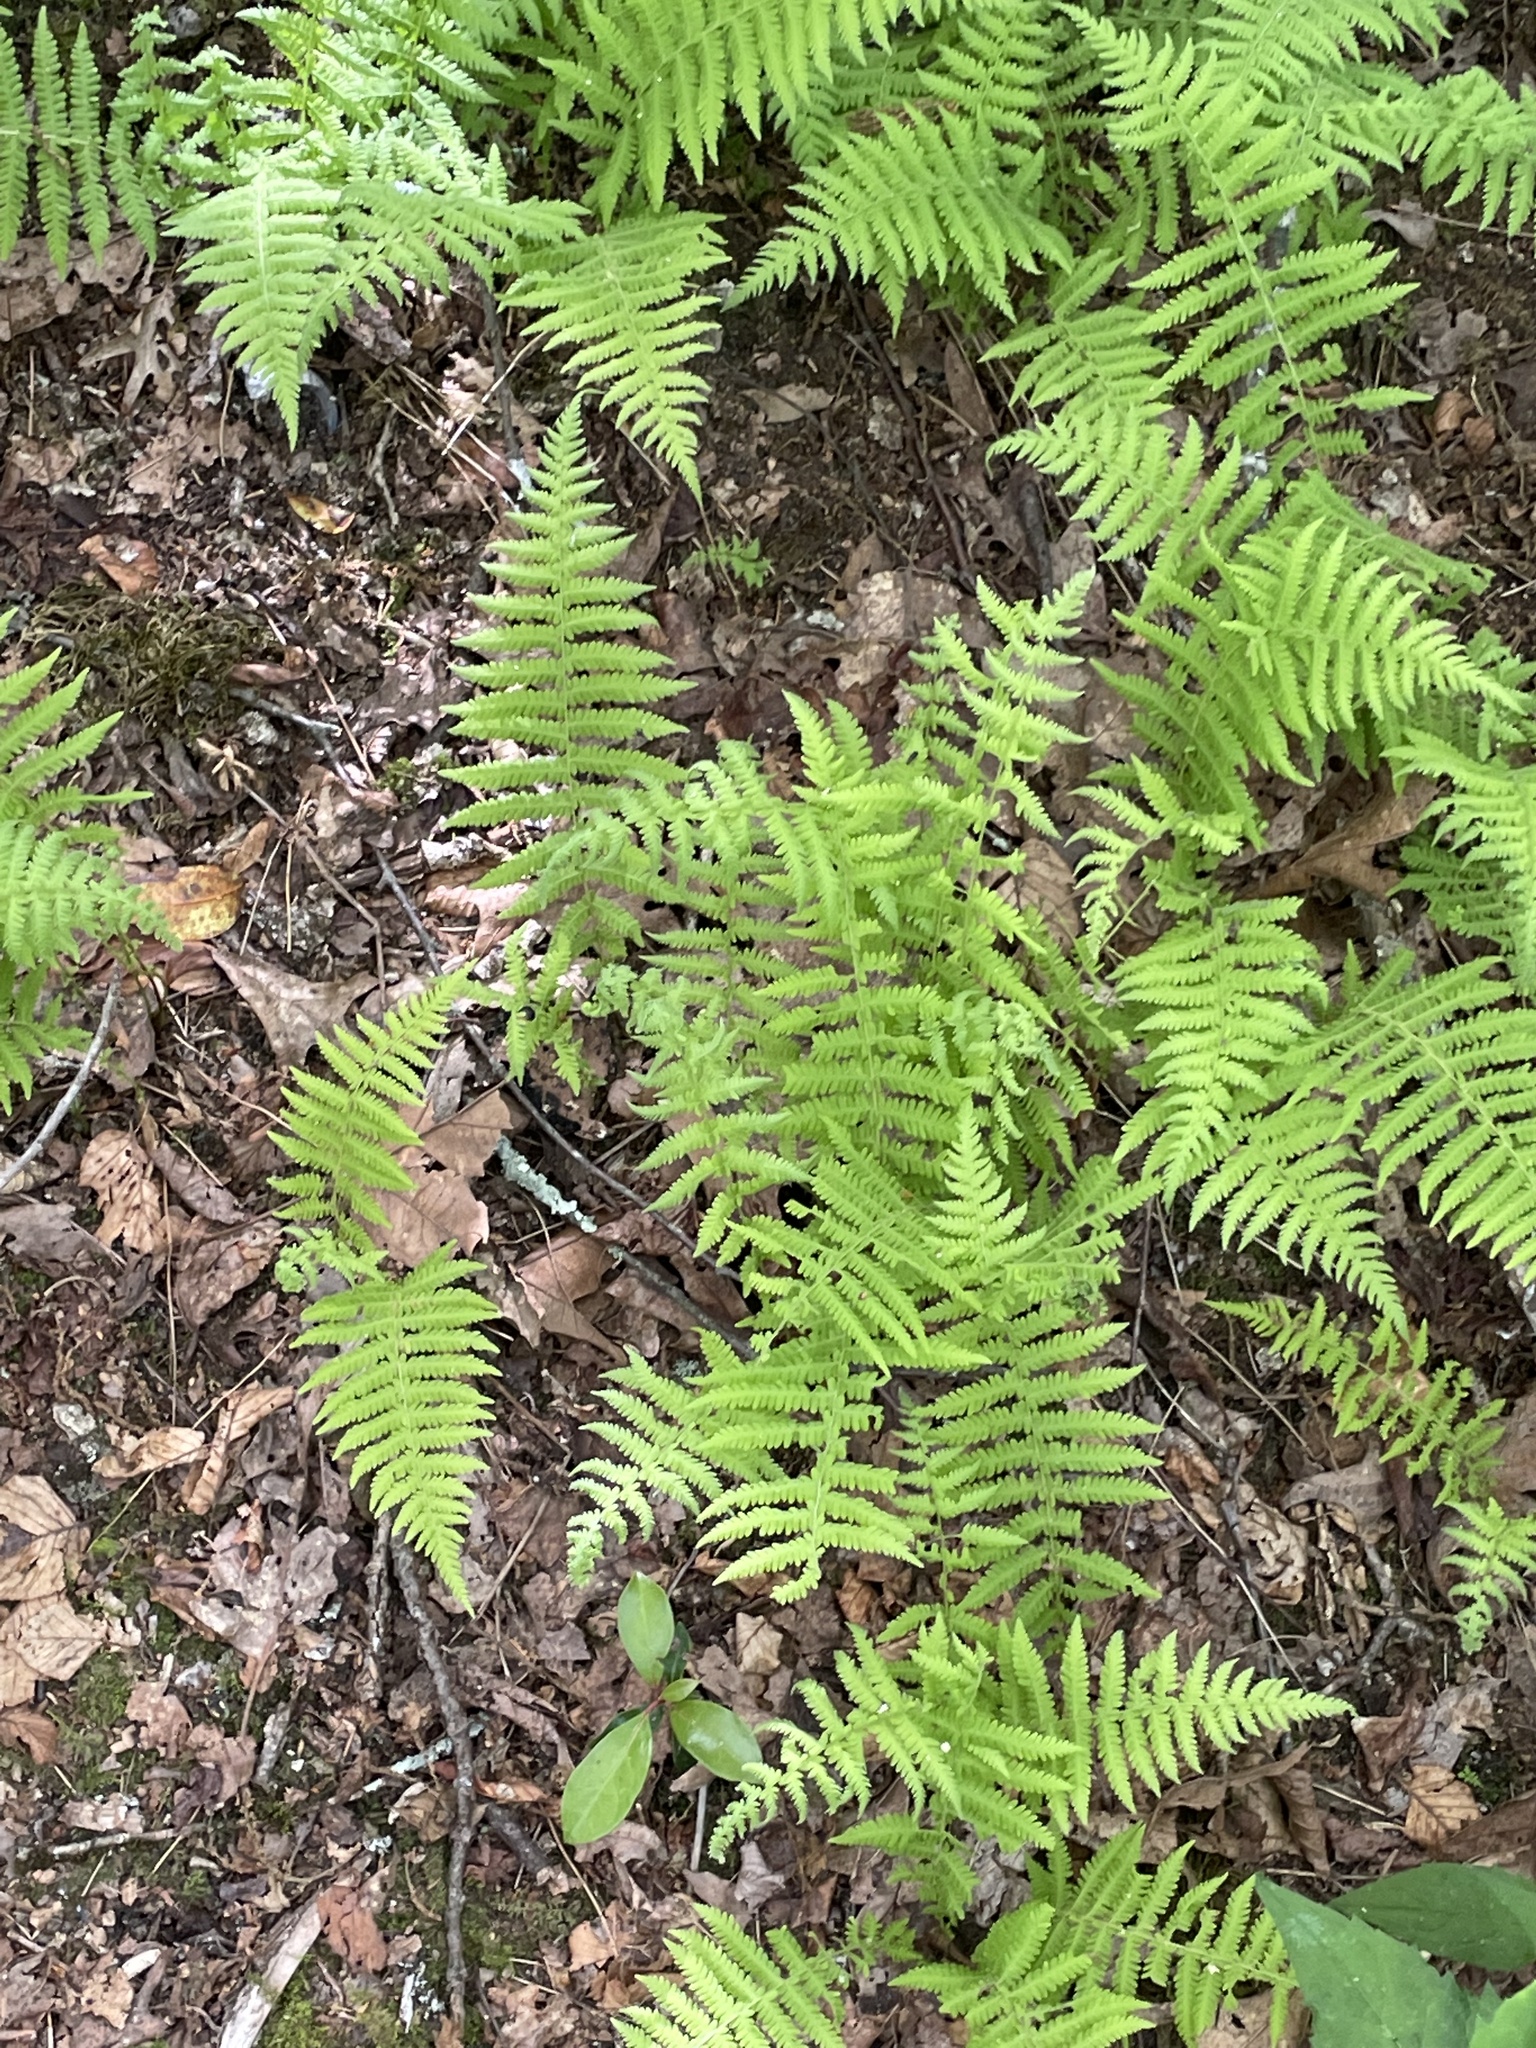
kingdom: Plantae
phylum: Tracheophyta
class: Polypodiopsida
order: Polypodiales
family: Thelypteridaceae
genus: Amauropelta
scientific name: Amauropelta noveboracensis
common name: New york fern
